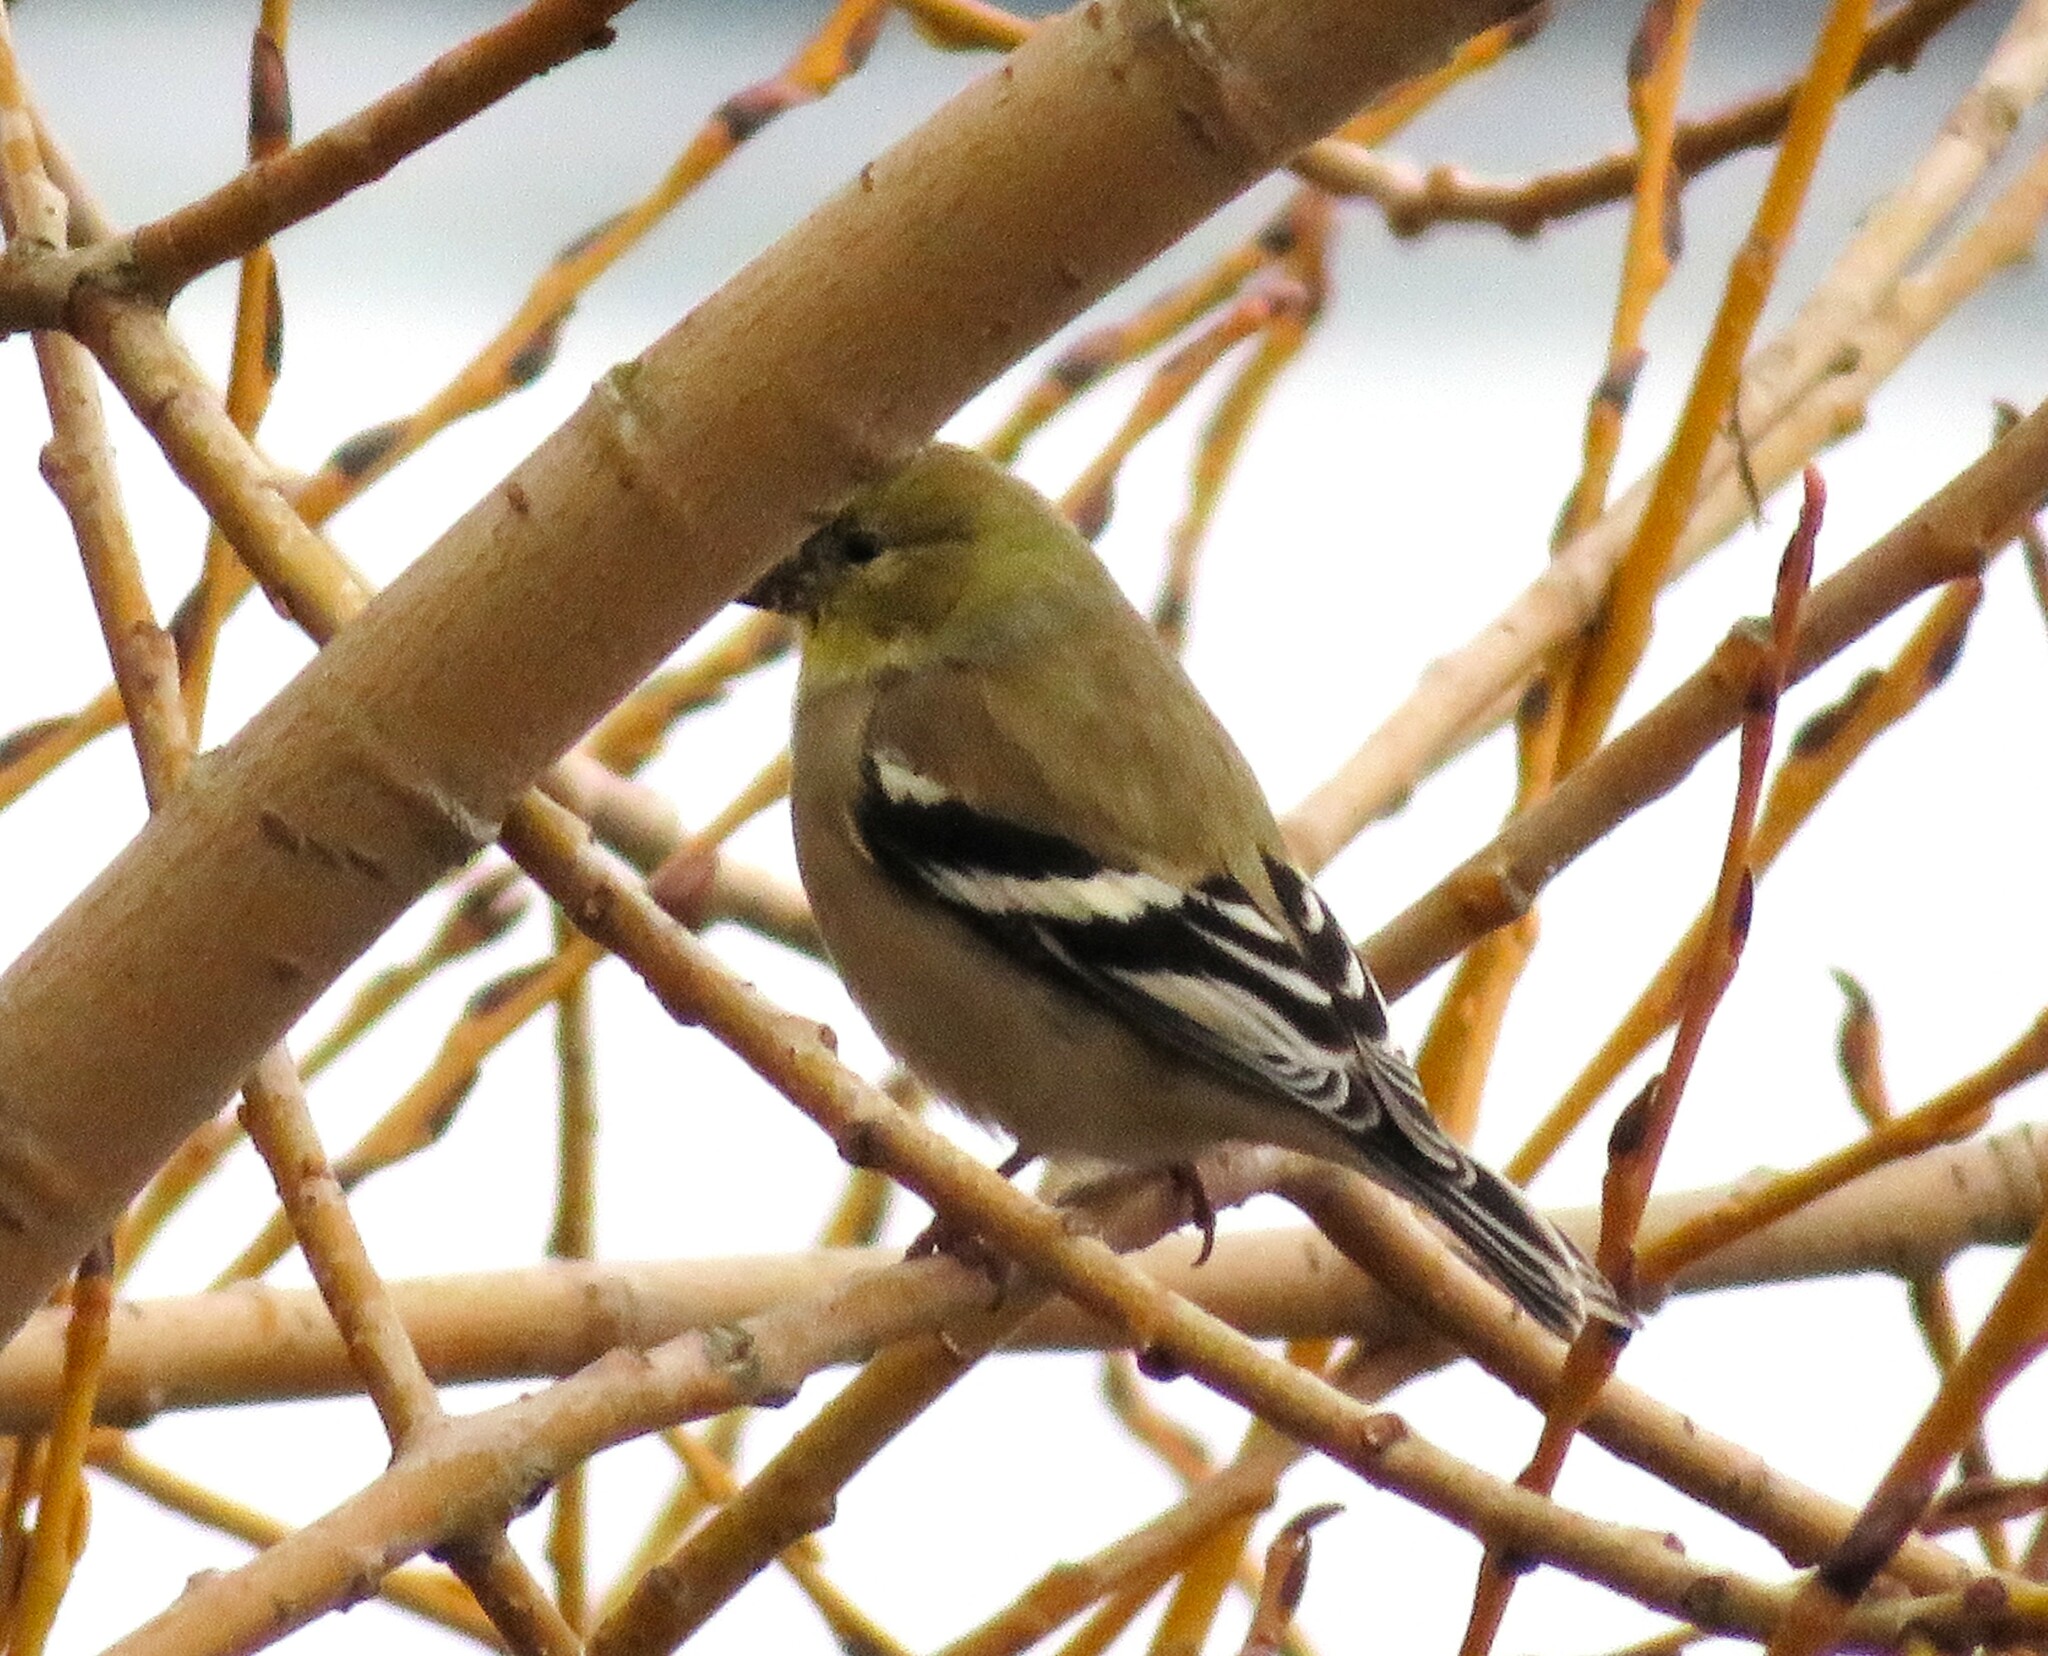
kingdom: Animalia
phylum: Chordata
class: Aves
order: Passeriformes
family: Fringillidae
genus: Spinus
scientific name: Spinus tristis
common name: American goldfinch
